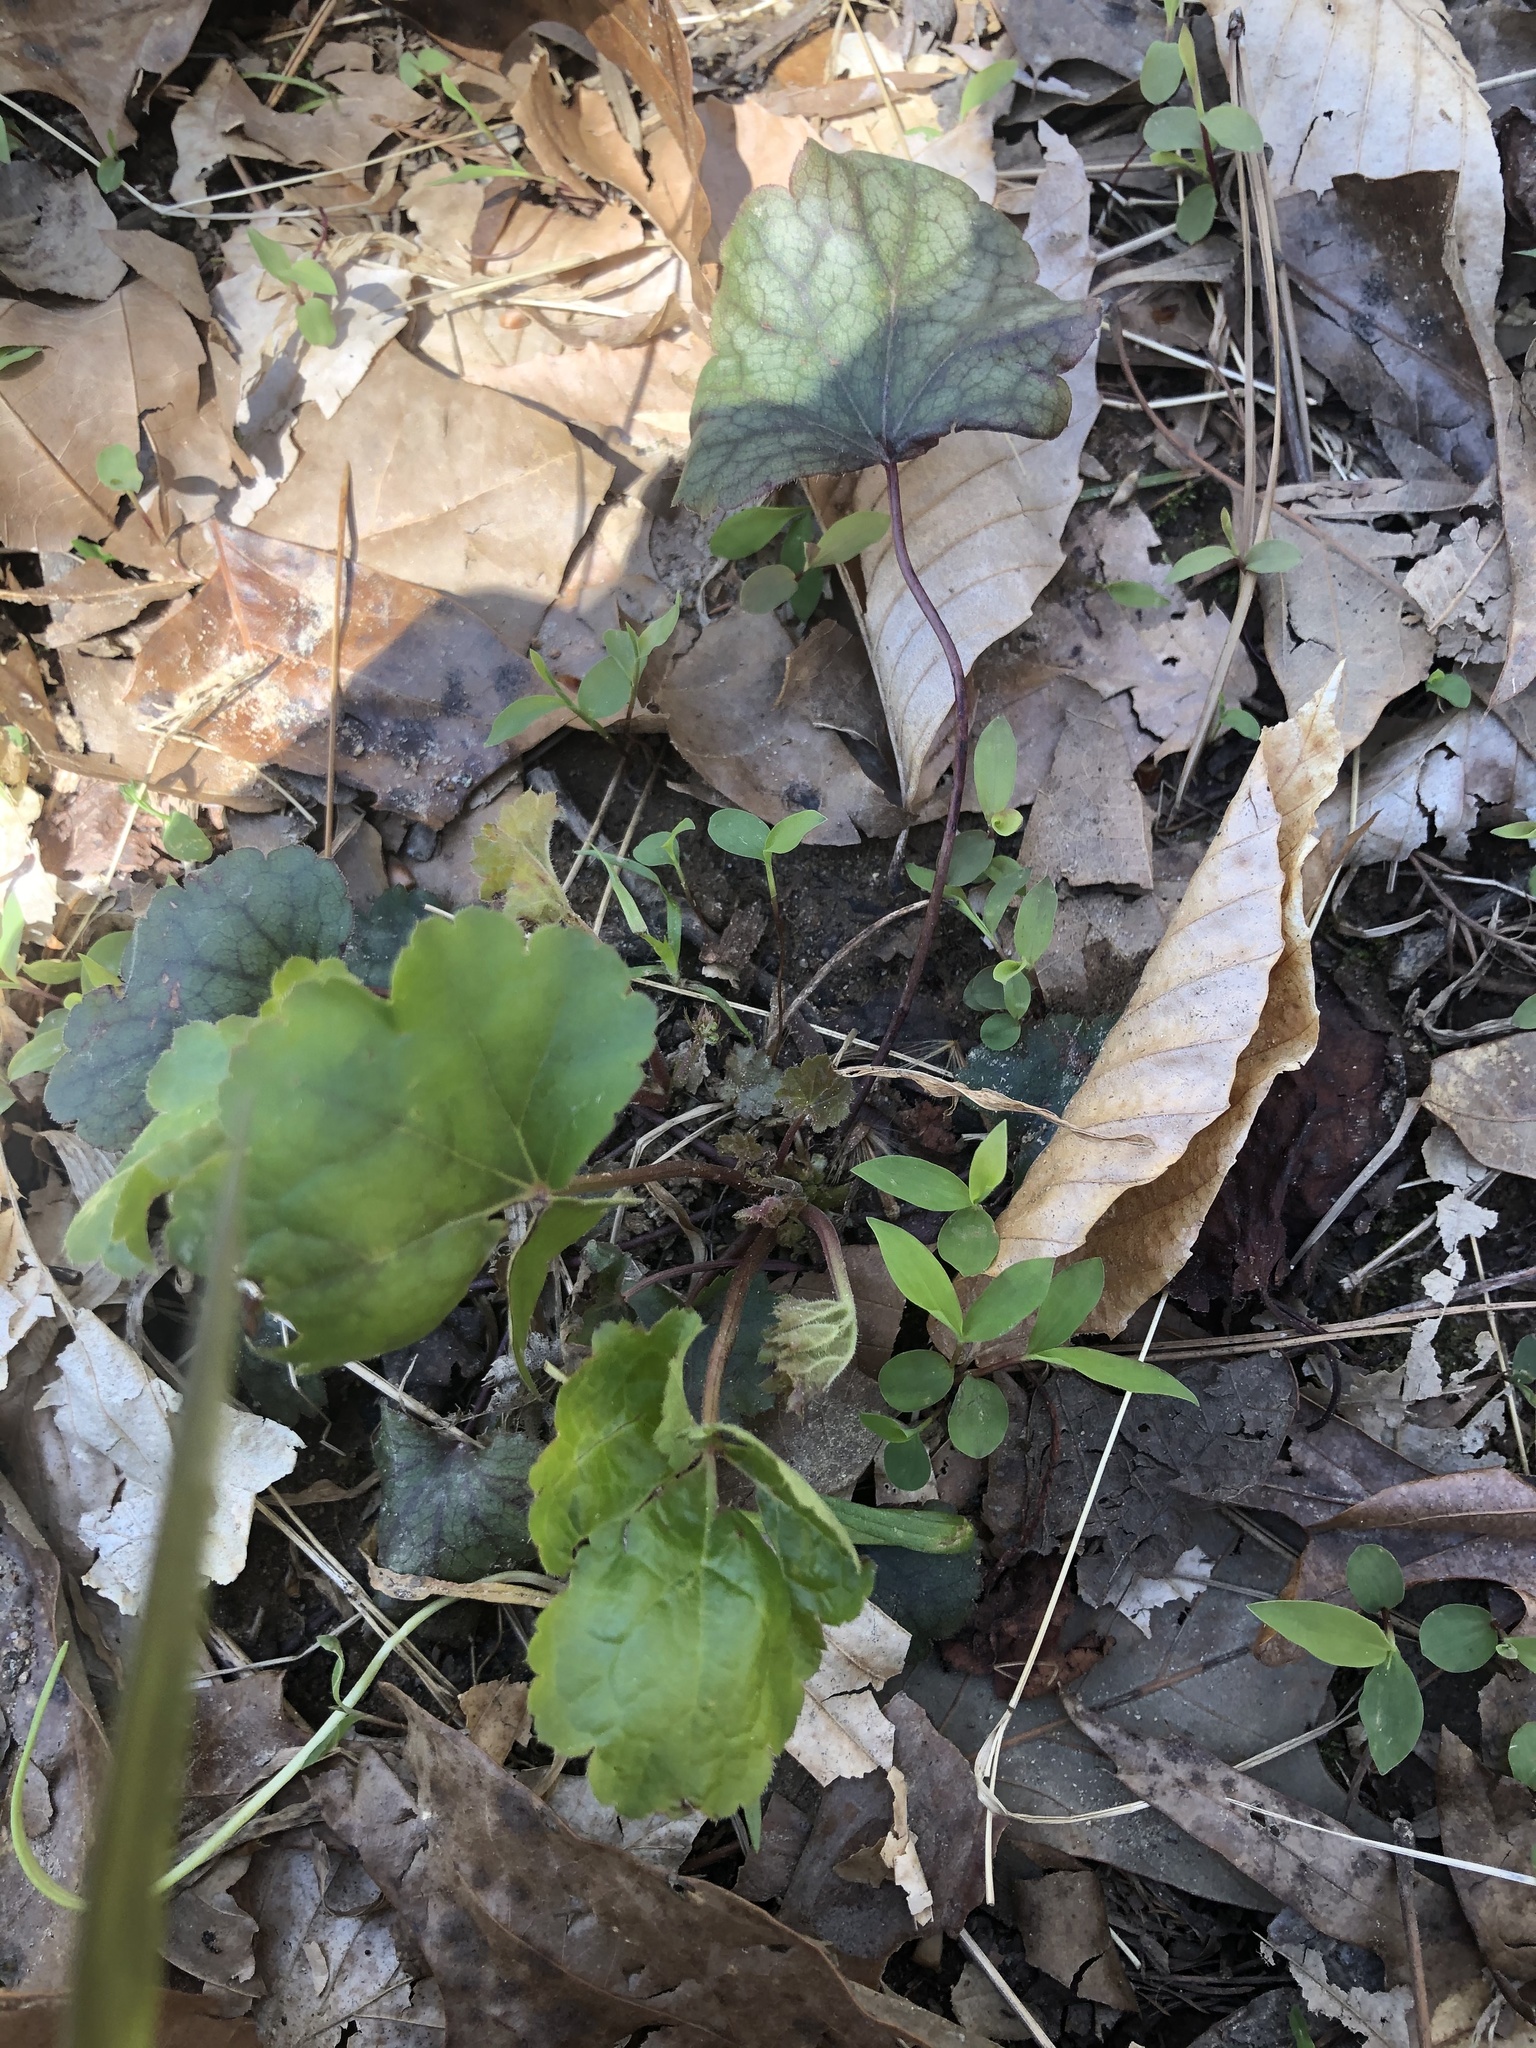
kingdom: Plantae
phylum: Tracheophyta
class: Magnoliopsida
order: Saxifragales
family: Saxifragaceae
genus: Heuchera
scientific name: Heuchera americana
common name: Alumroot
